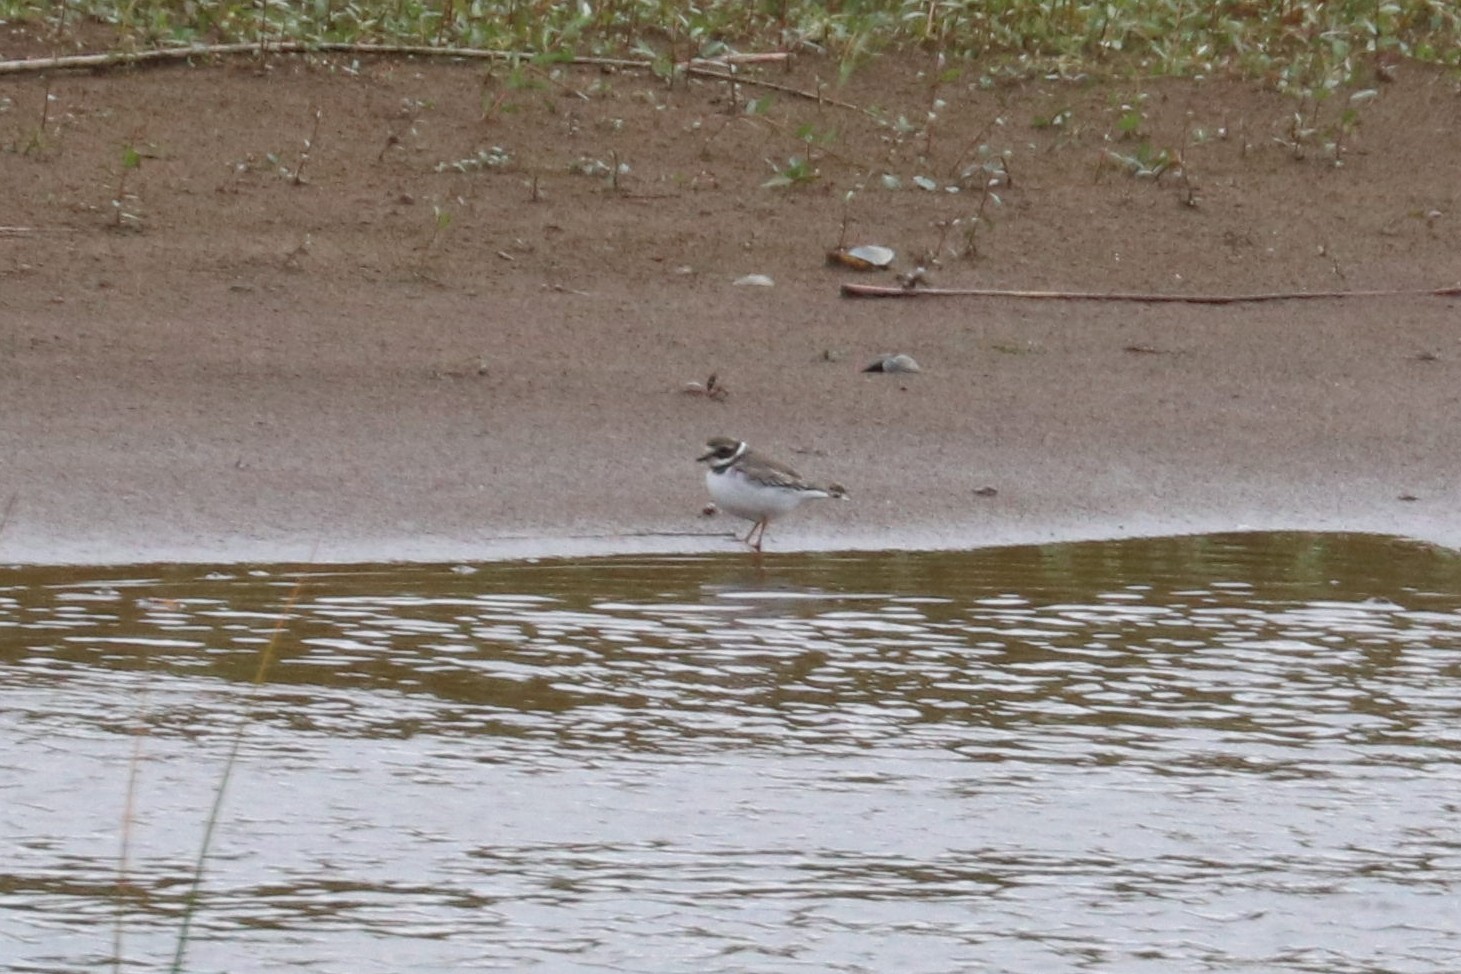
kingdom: Animalia
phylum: Chordata
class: Aves
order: Charadriiformes
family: Charadriidae
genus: Charadrius
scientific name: Charadrius hiaticula
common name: Common ringed plover
